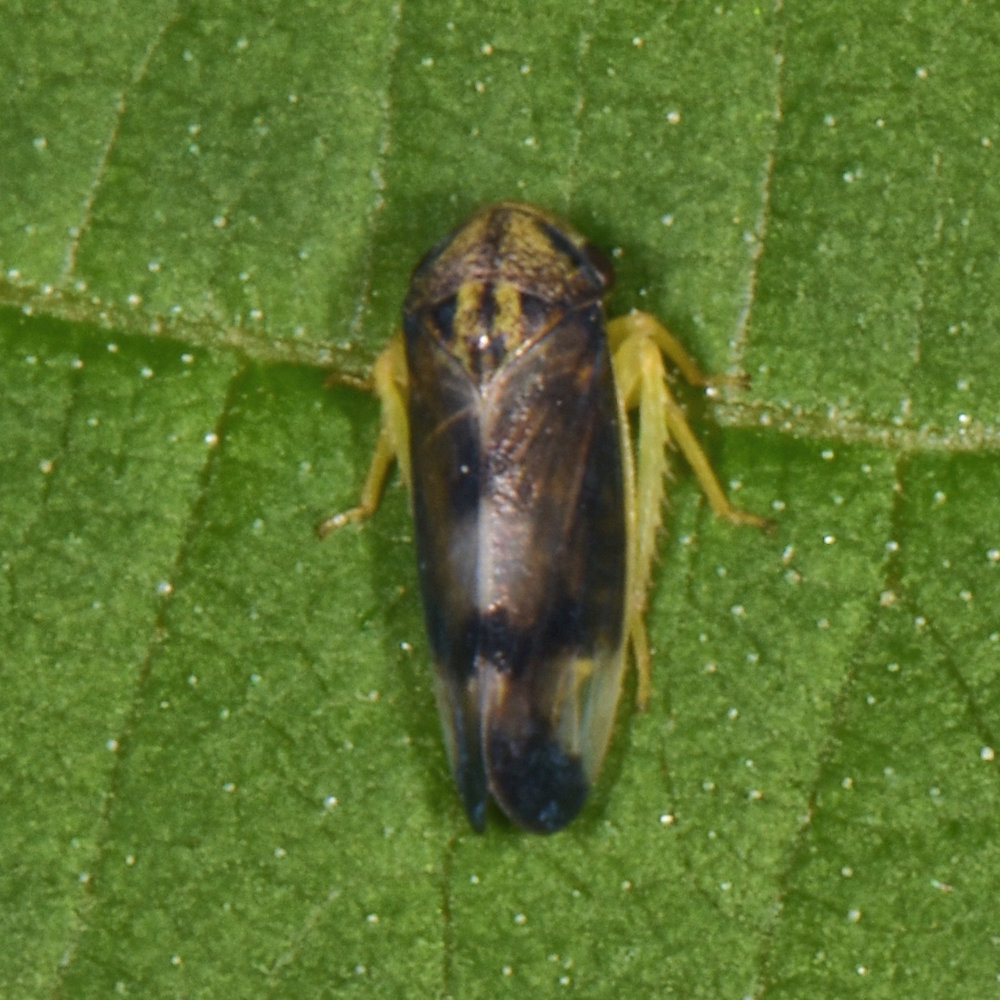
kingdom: Animalia
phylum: Arthropoda
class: Insecta
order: Hemiptera
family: Cicadellidae
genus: Pediopsoides
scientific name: Pediopsoides distinctus
